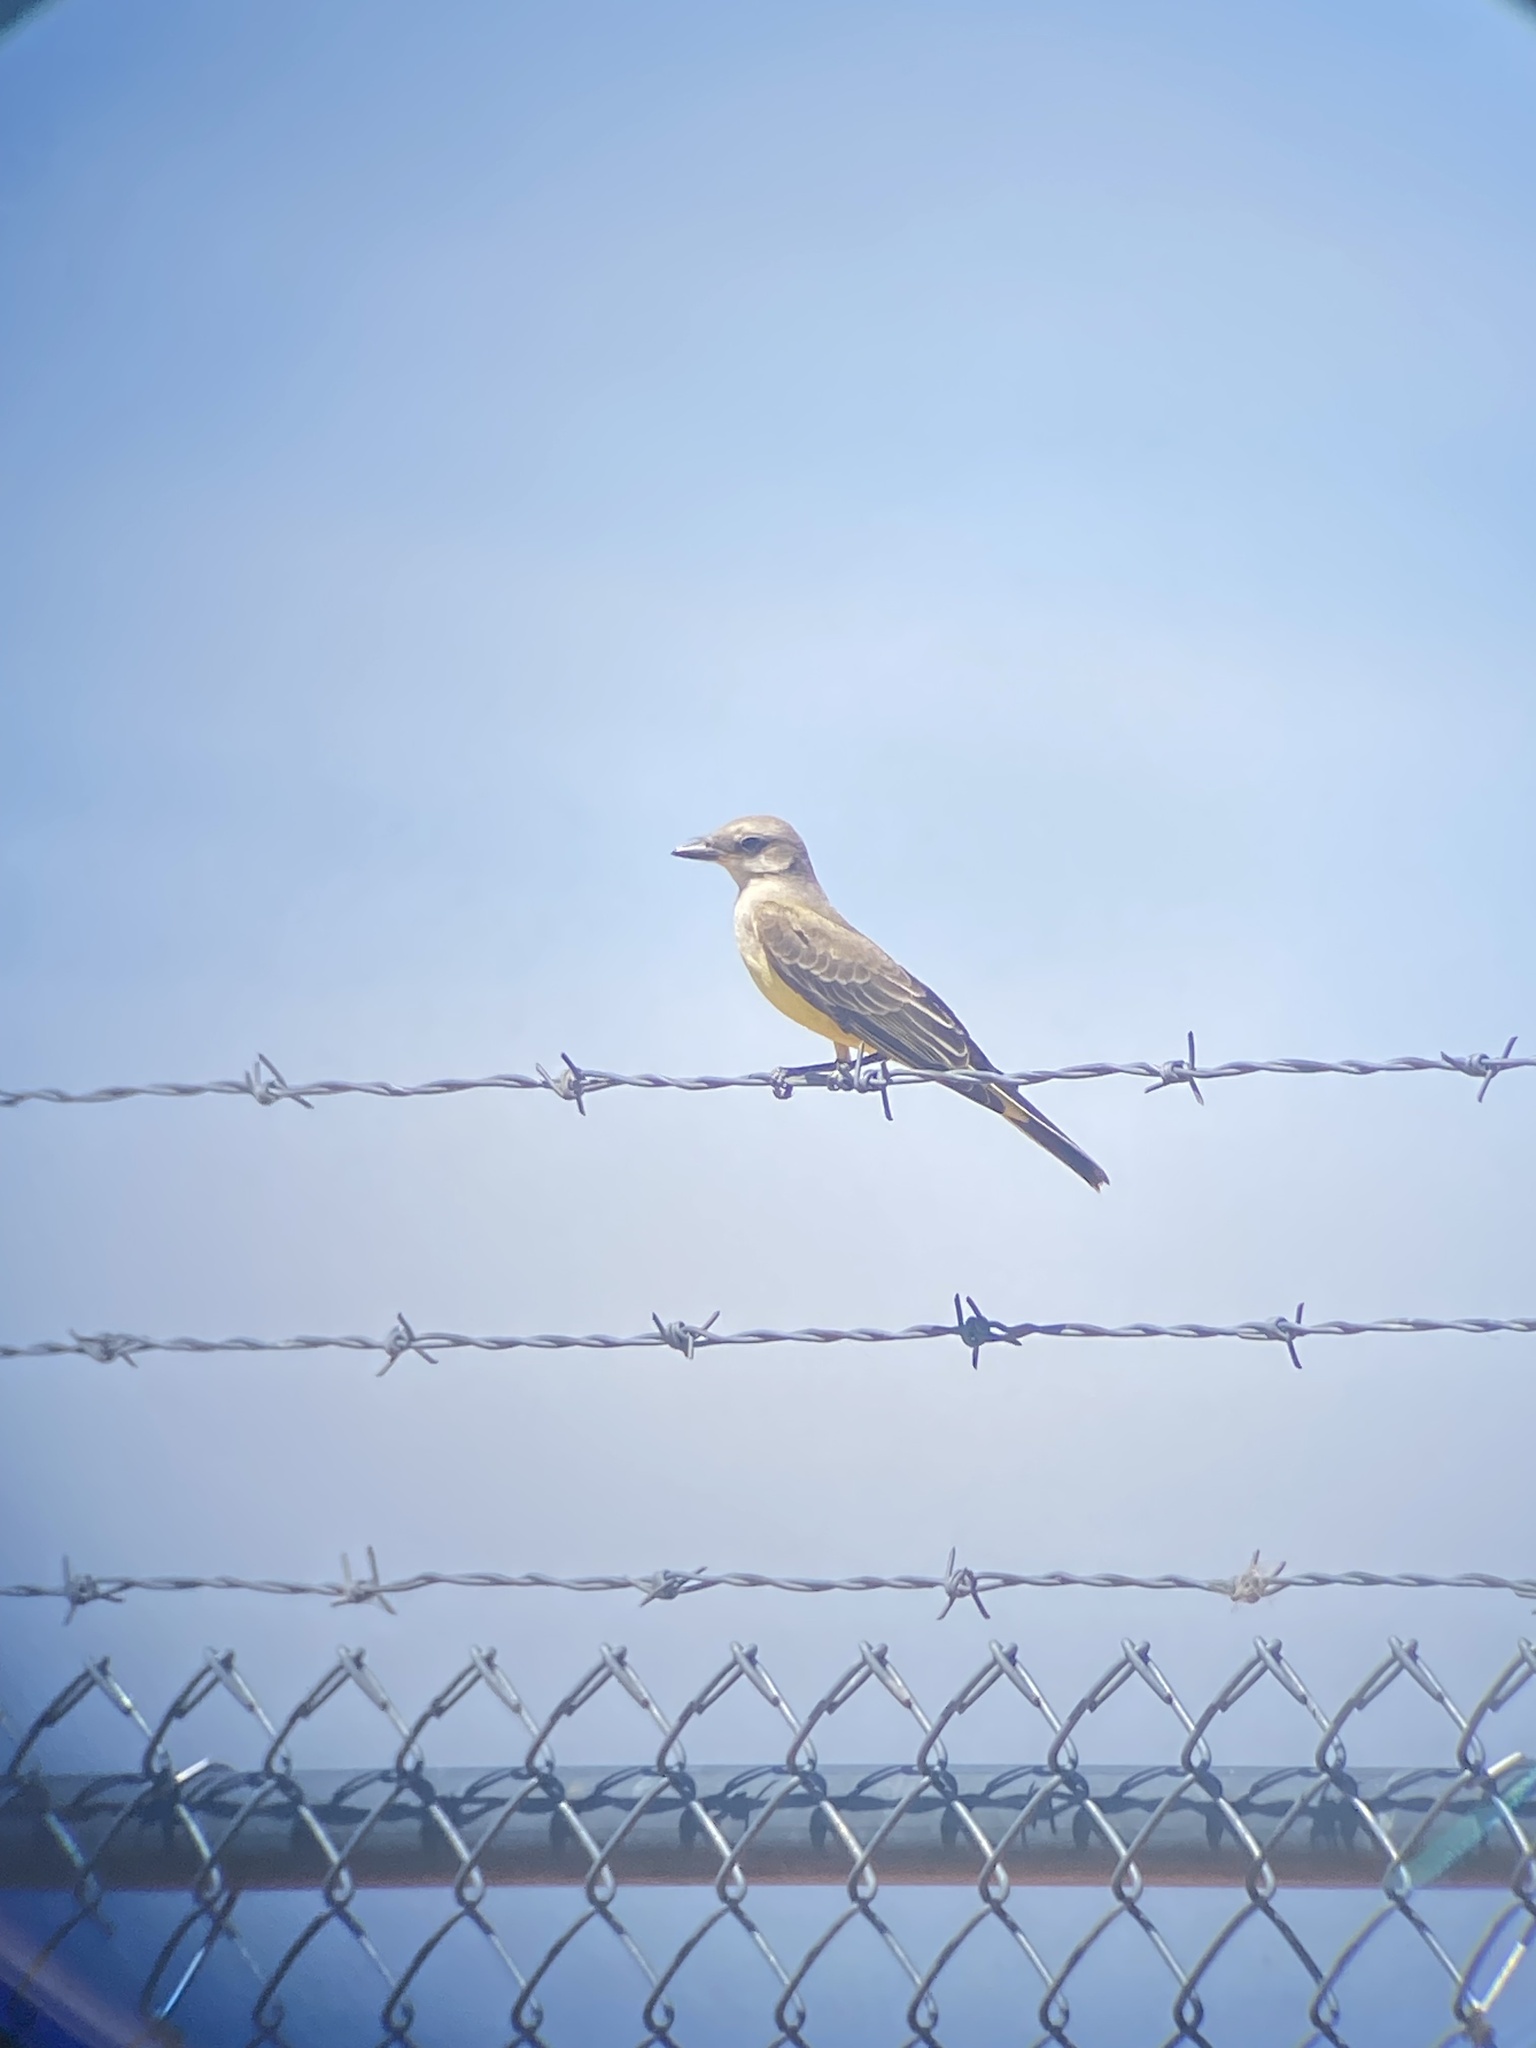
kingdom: Animalia
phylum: Chordata
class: Aves
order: Passeriformes
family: Tyrannidae
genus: Tyrannus
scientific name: Tyrannus verticalis
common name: Western kingbird
